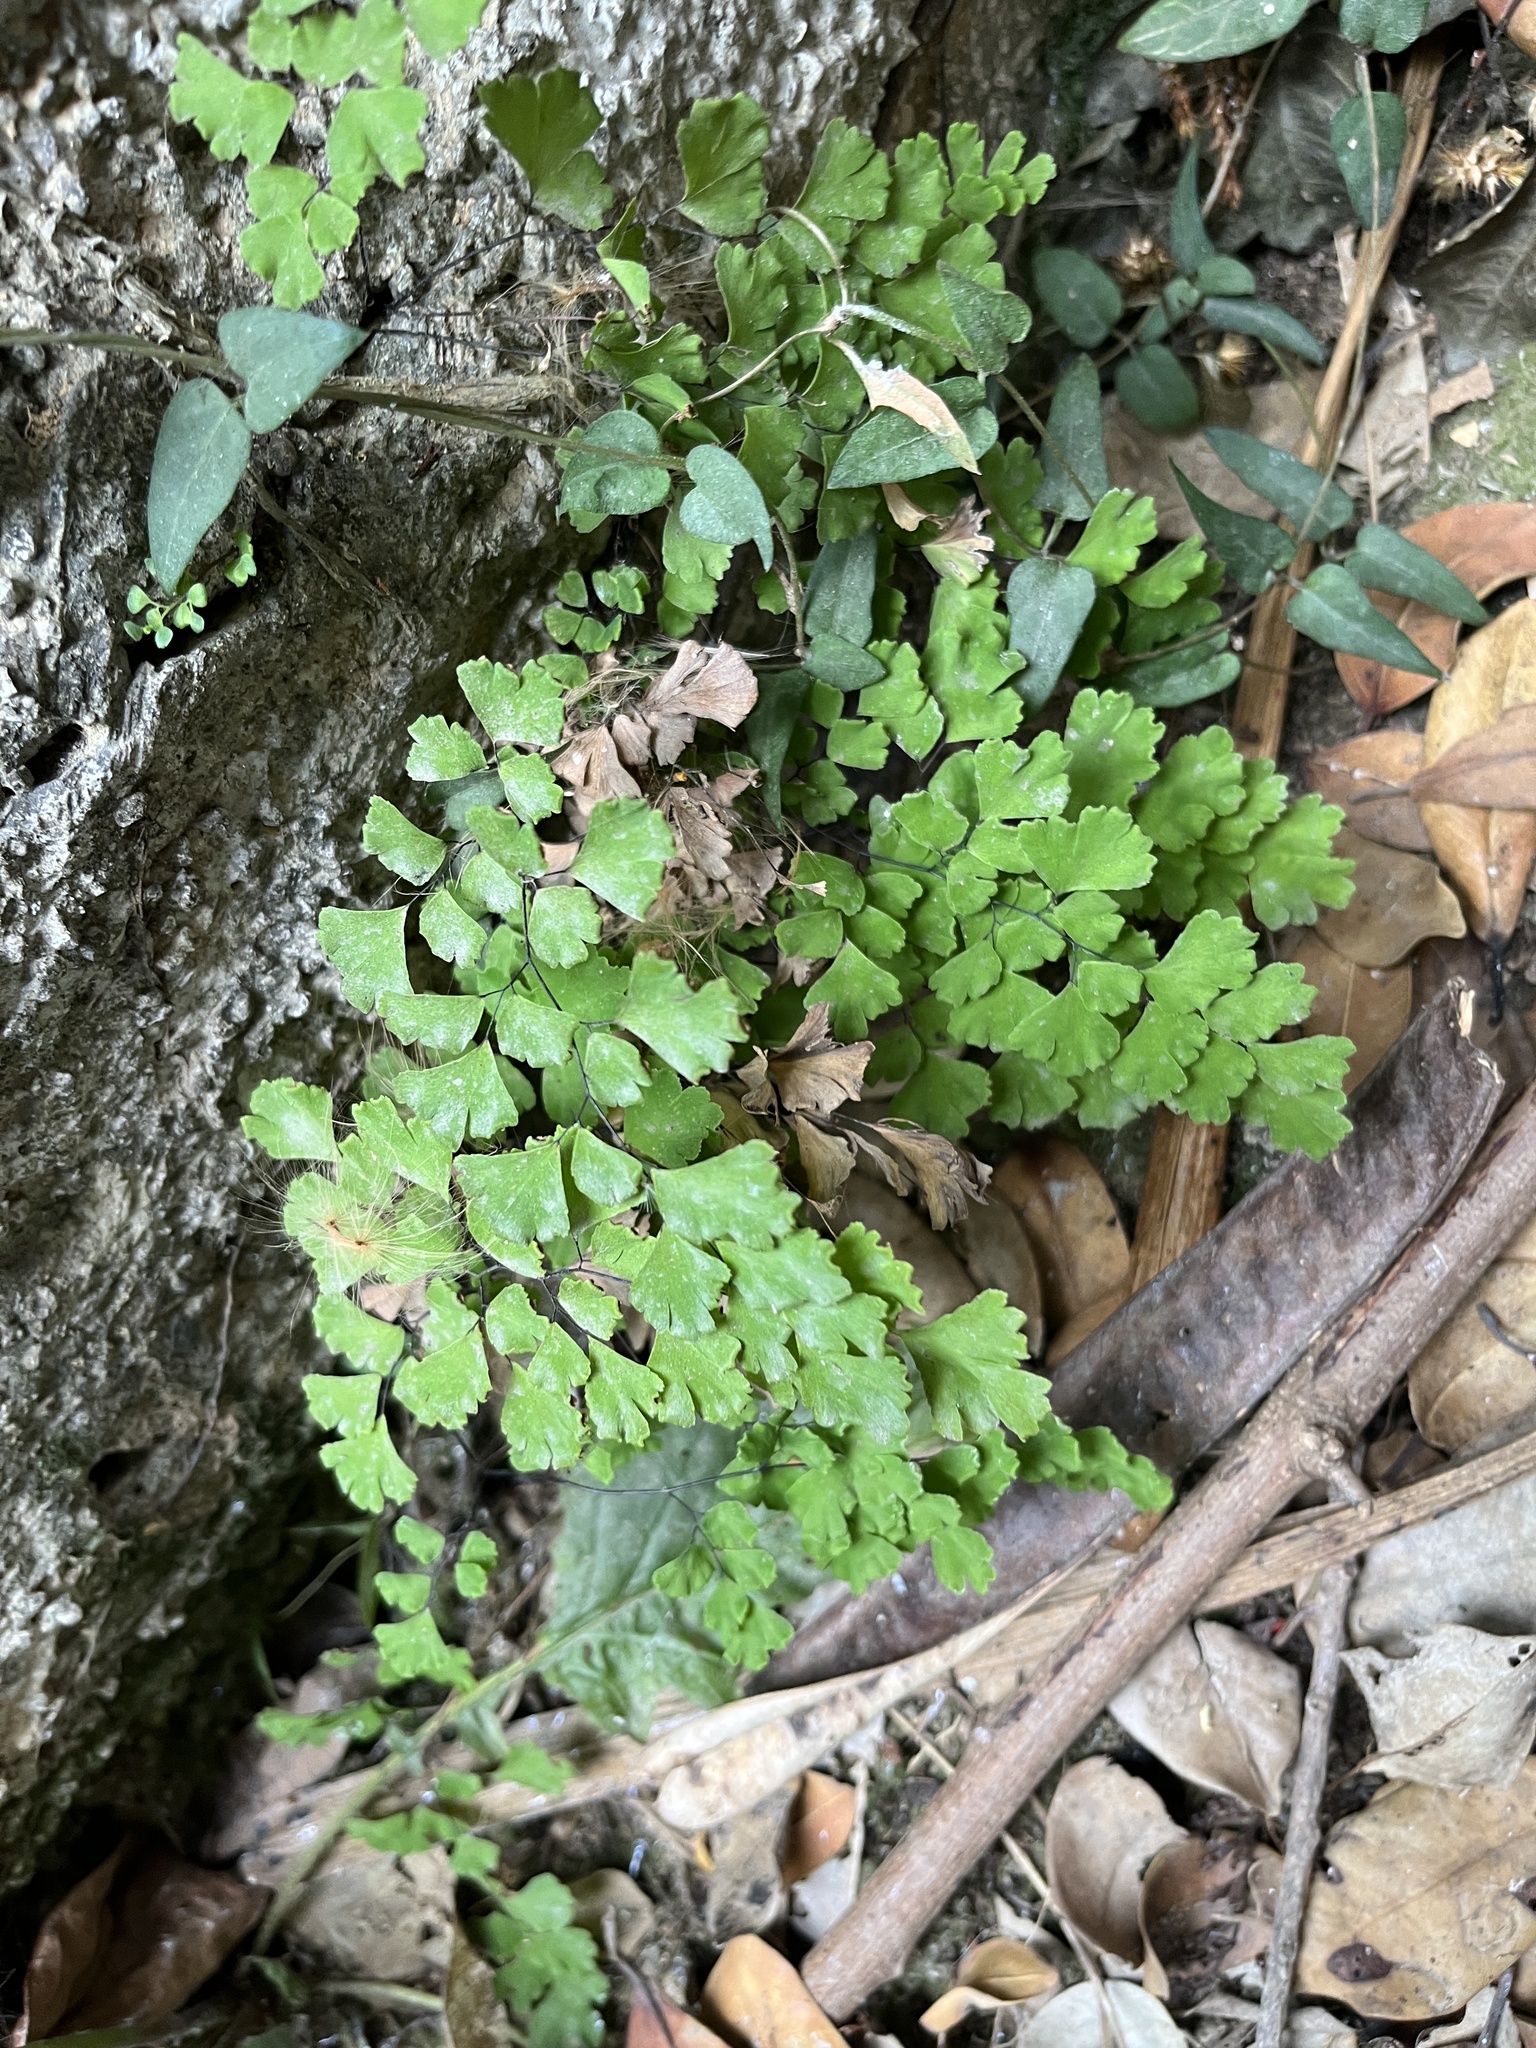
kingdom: Plantae
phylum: Tracheophyta
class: Polypodiopsida
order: Polypodiales
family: Pteridaceae
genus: Adiantum
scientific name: Adiantum capillus-veneris
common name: Maidenhair fern
